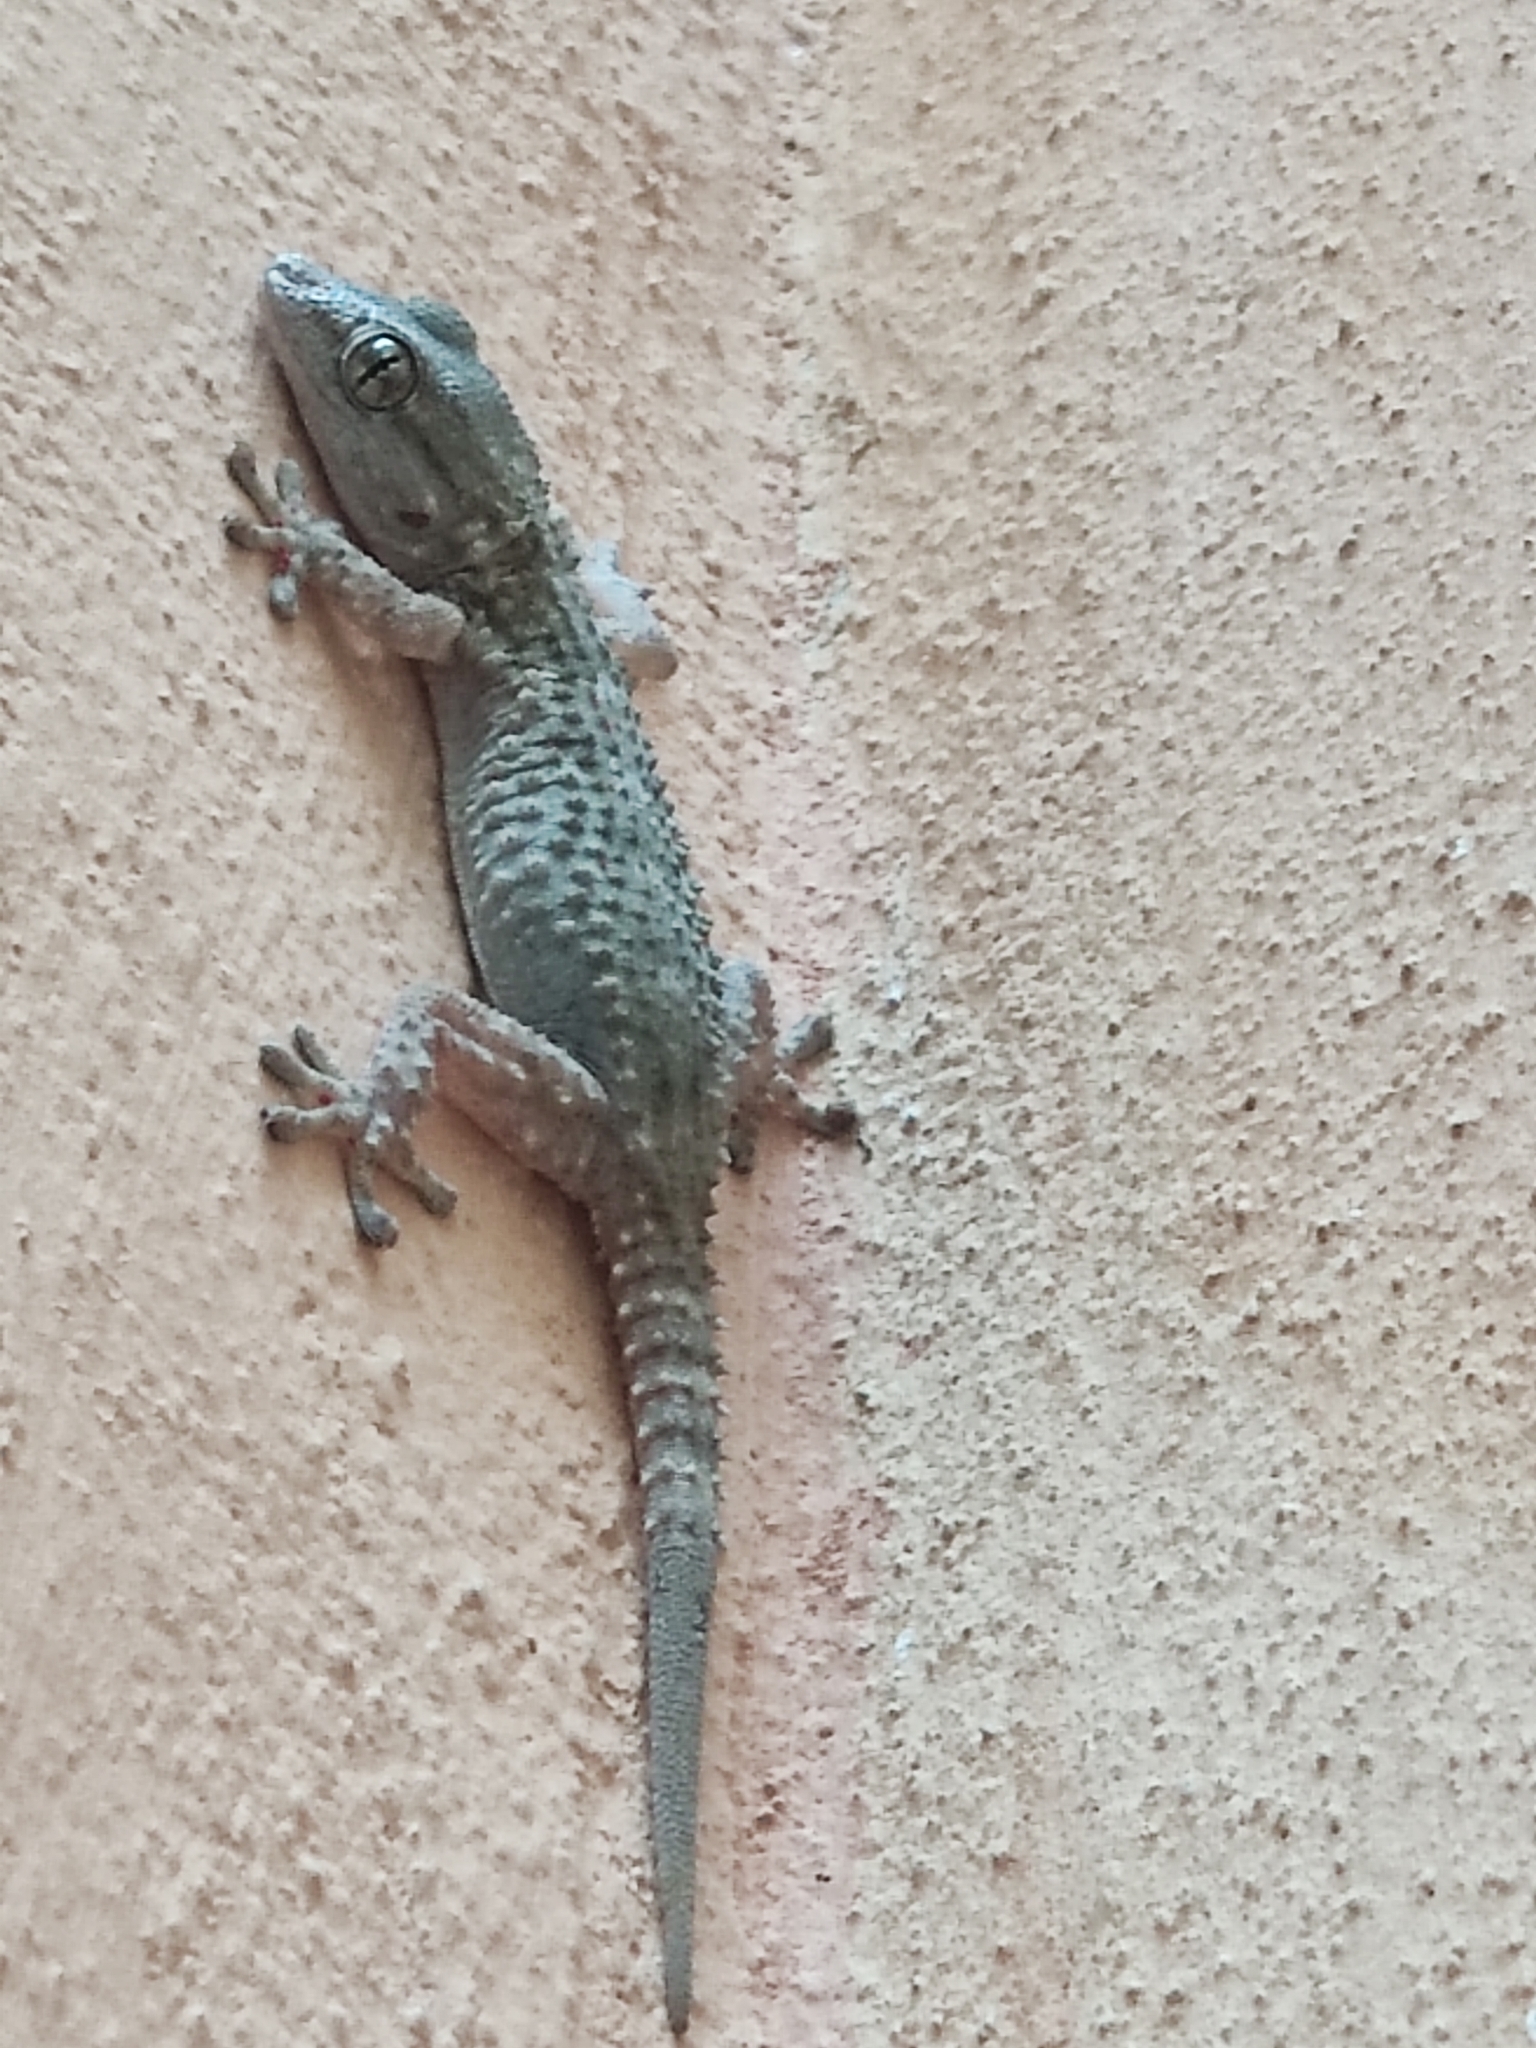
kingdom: Animalia
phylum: Chordata
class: Squamata
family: Phyllodactylidae
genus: Tarentola
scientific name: Tarentola mauritanica
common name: Moorish gecko
